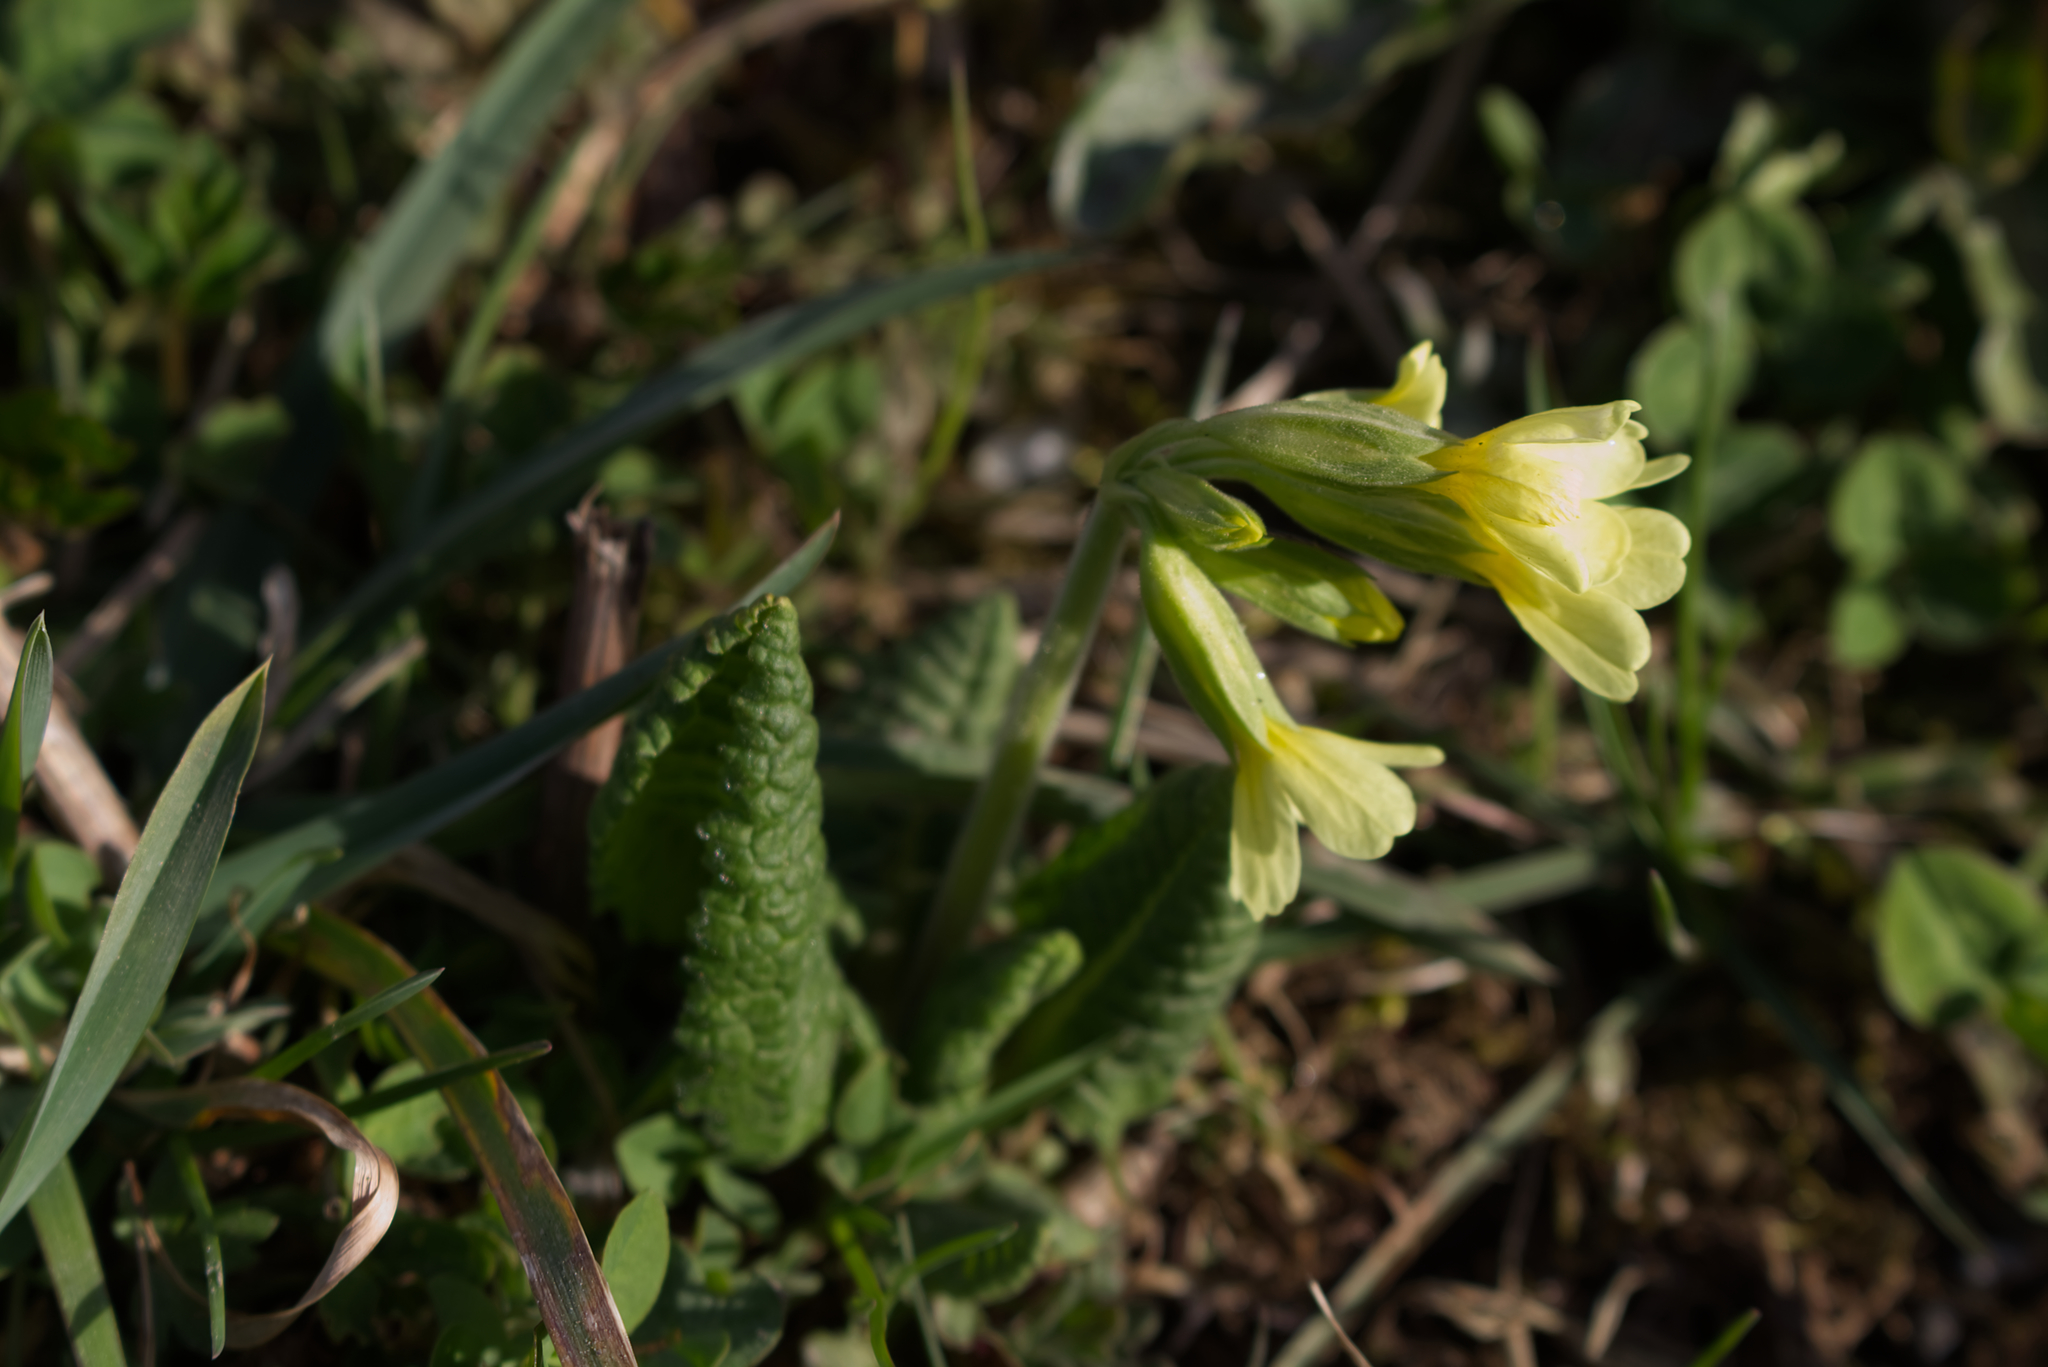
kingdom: Plantae
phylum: Tracheophyta
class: Magnoliopsida
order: Ericales
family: Primulaceae
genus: Primula
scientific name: Primula elatior
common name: Oxlip
